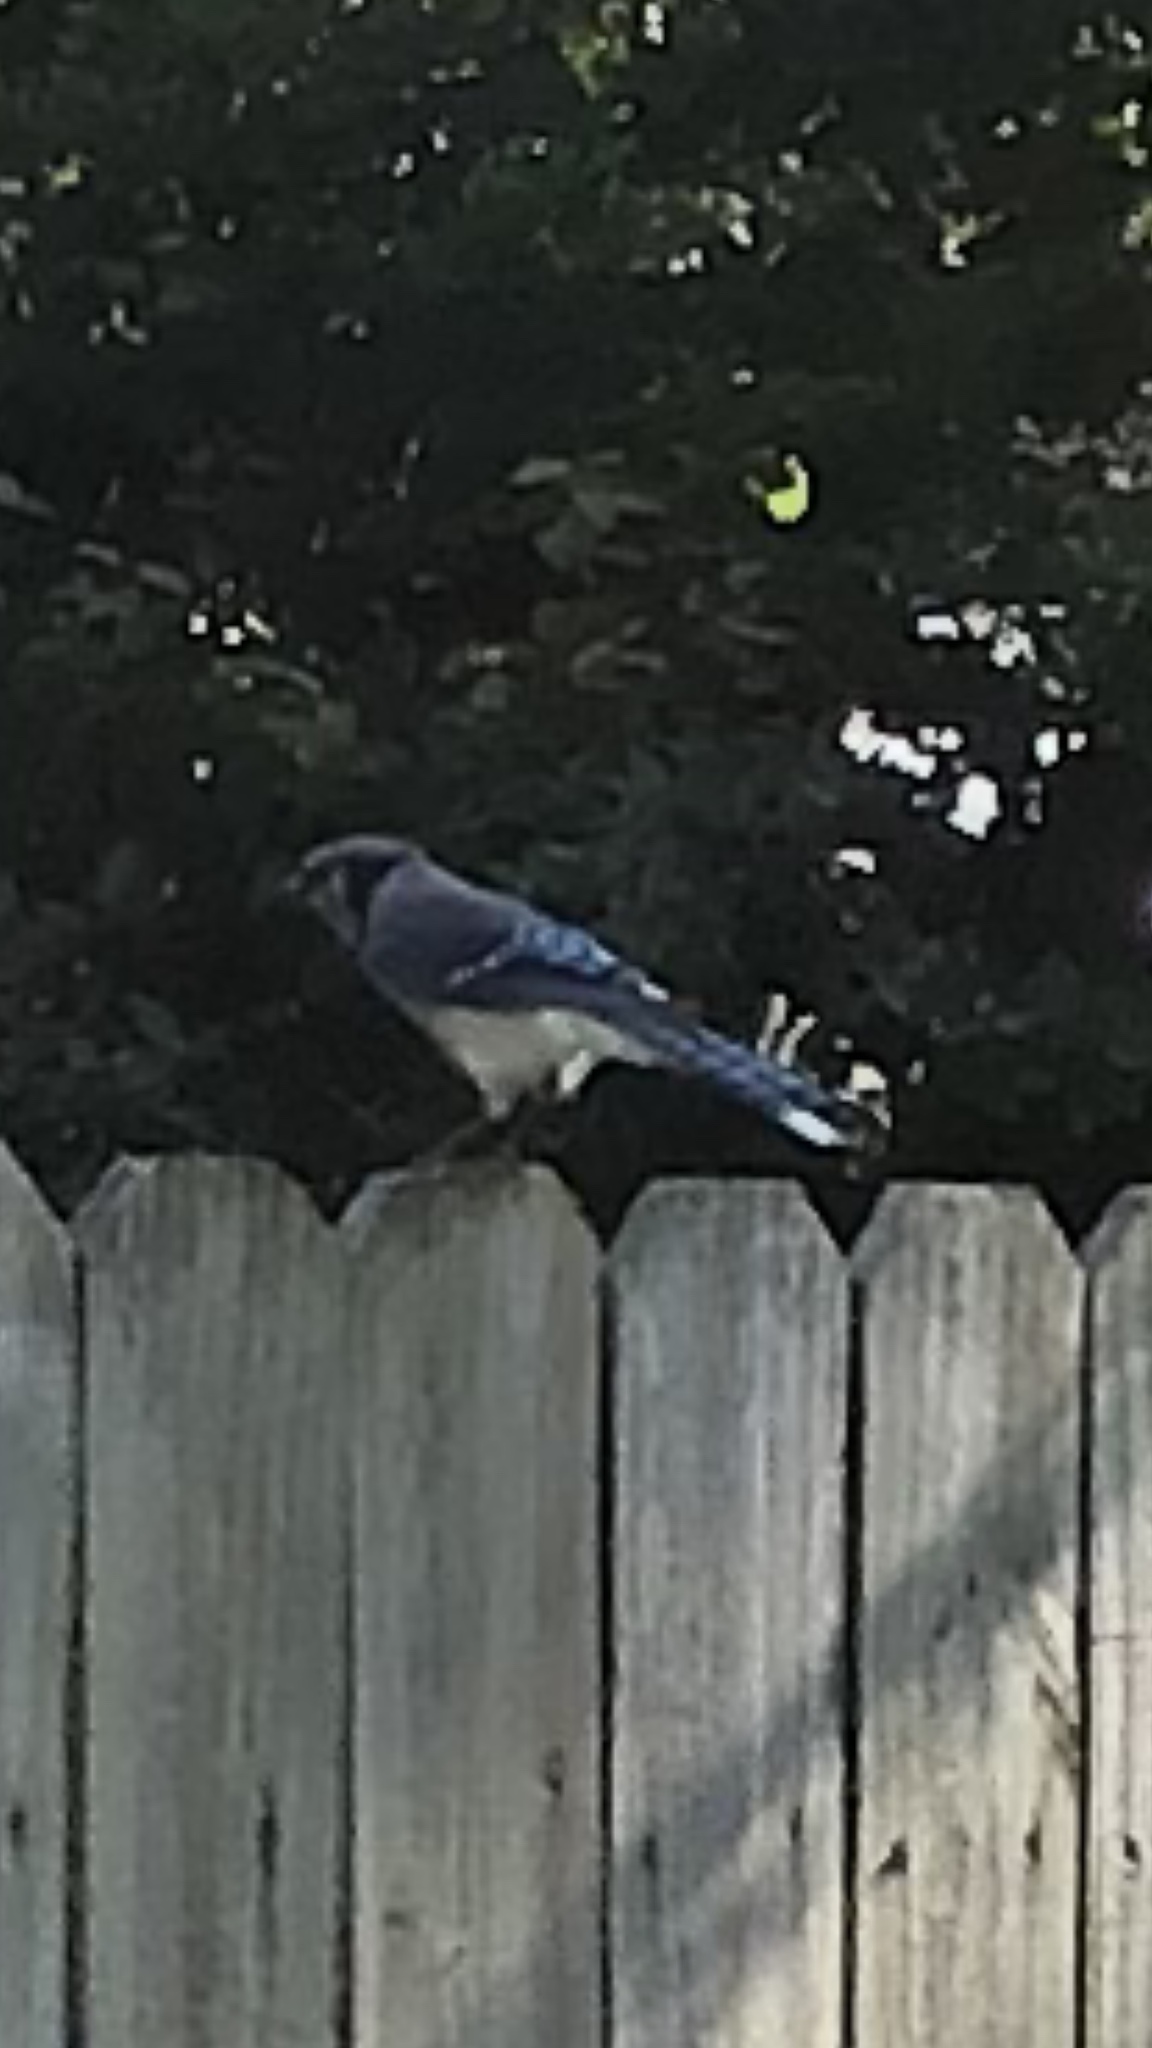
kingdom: Animalia
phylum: Chordata
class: Aves
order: Passeriformes
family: Corvidae
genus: Cyanocitta
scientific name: Cyanocitta cristata
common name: Blue jay
